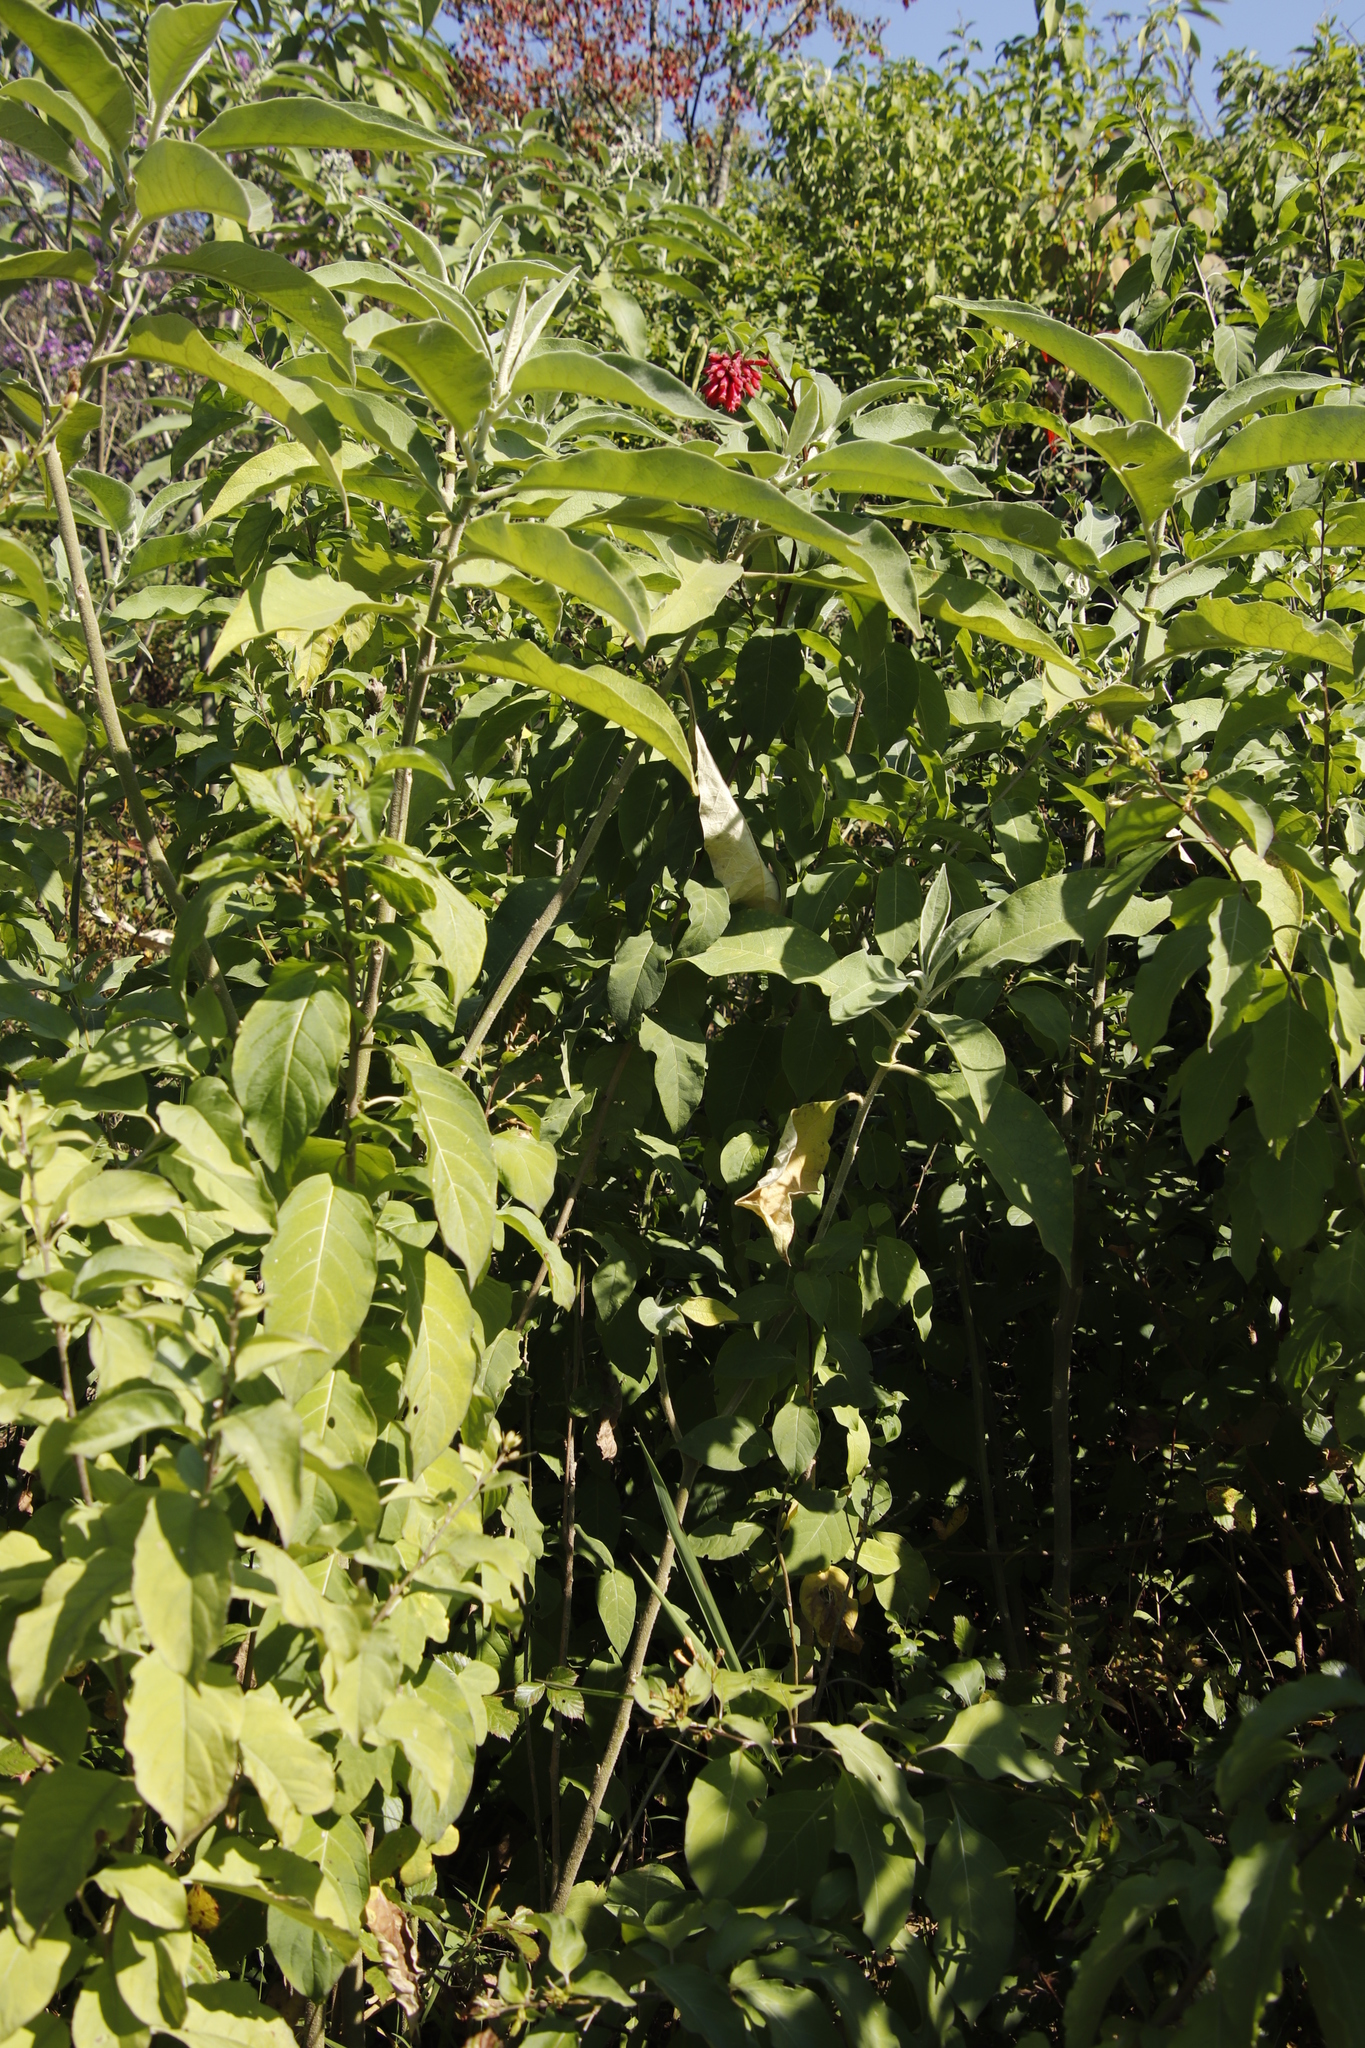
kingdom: Plantae
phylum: Tracheophyta
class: Magnoliopsida
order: Solanales
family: Solanaceae
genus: Cestrum
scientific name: Cestrum elegans
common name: Crimson cestrum
